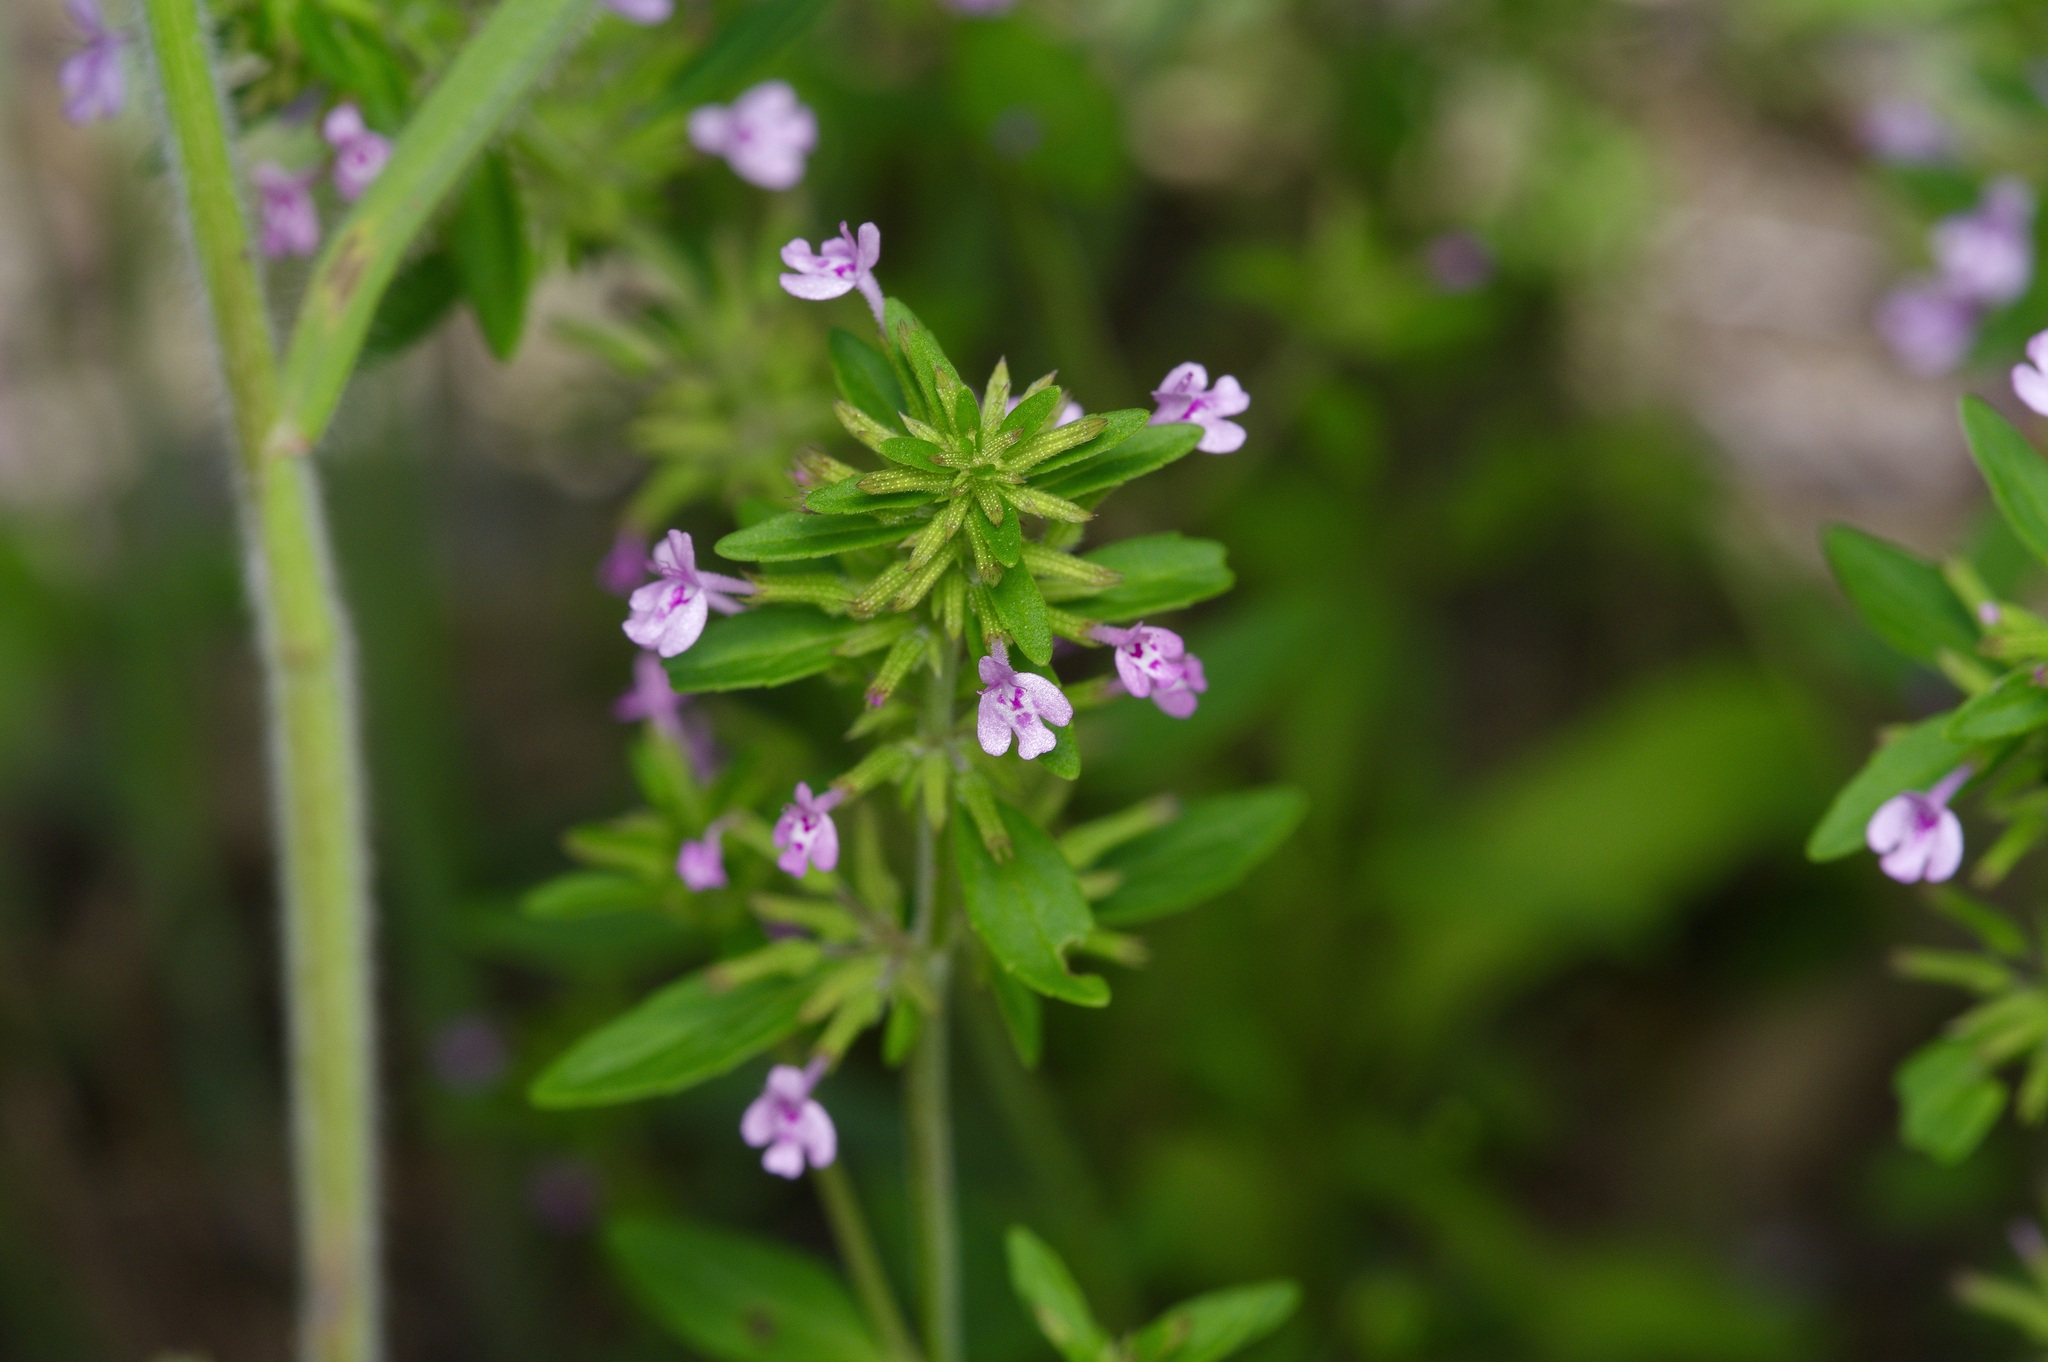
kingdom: Plantae
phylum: Tracheophyta
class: Magnoliopsida
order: Lamiales
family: Lamiaceae
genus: Hedeoma
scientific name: Hedeoma acinoides
